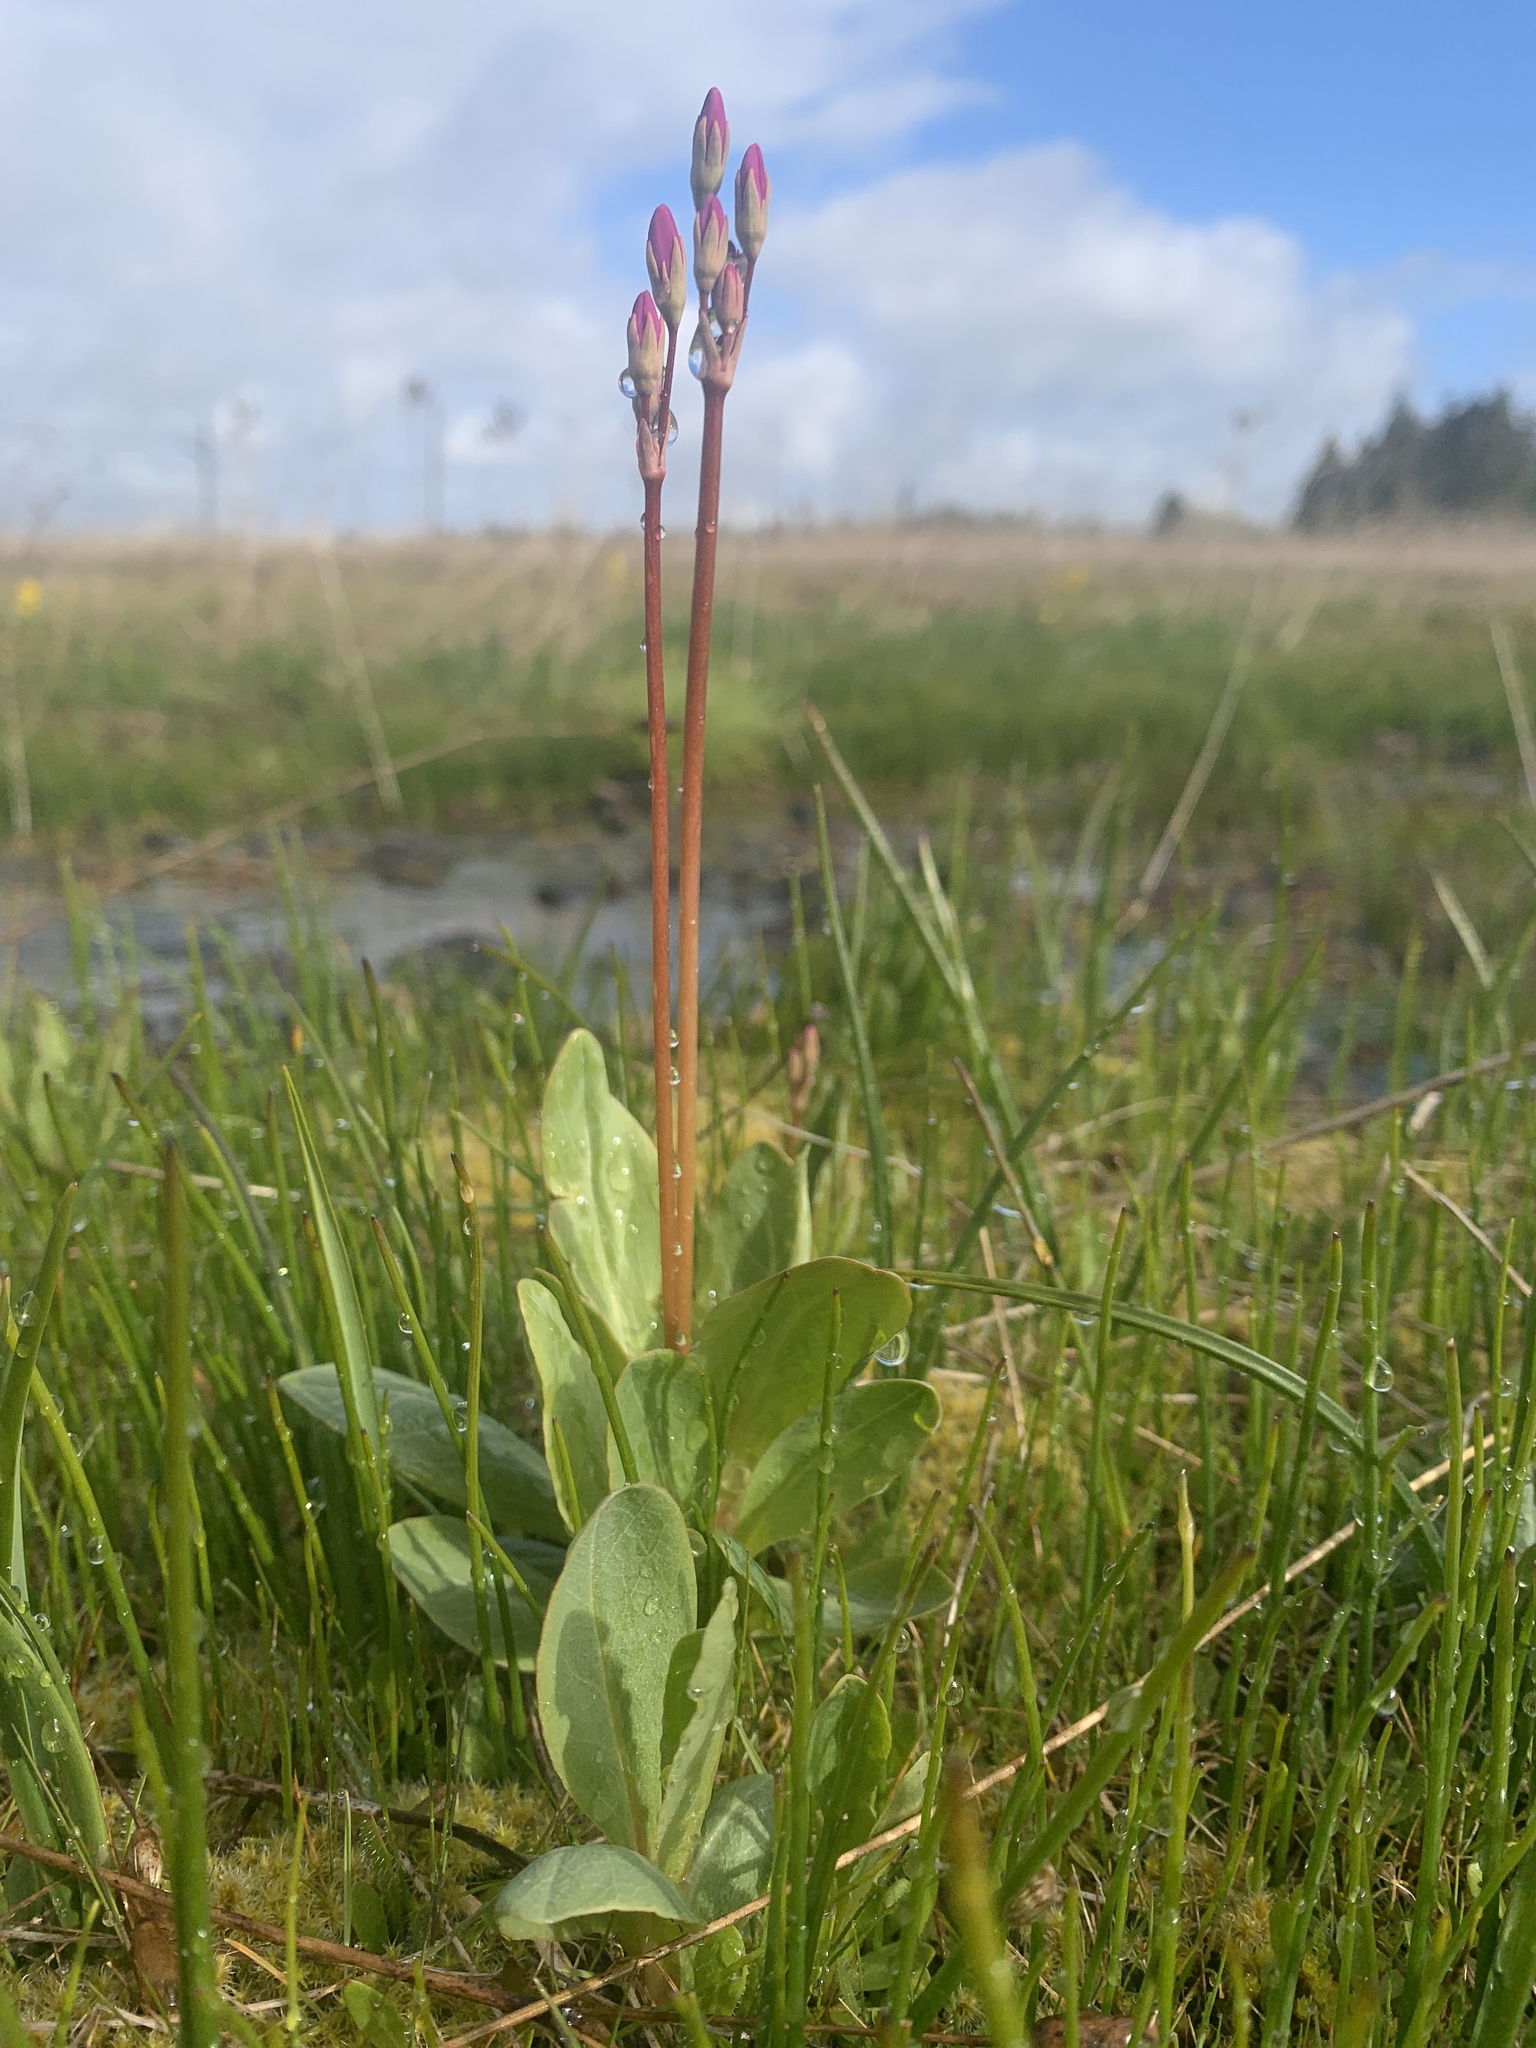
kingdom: Plantae
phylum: Tracheophyta
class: Magnoliopsida
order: Ericales
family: Primulaceae
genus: Dodecatheon
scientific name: Dodecatheon pulchellum
